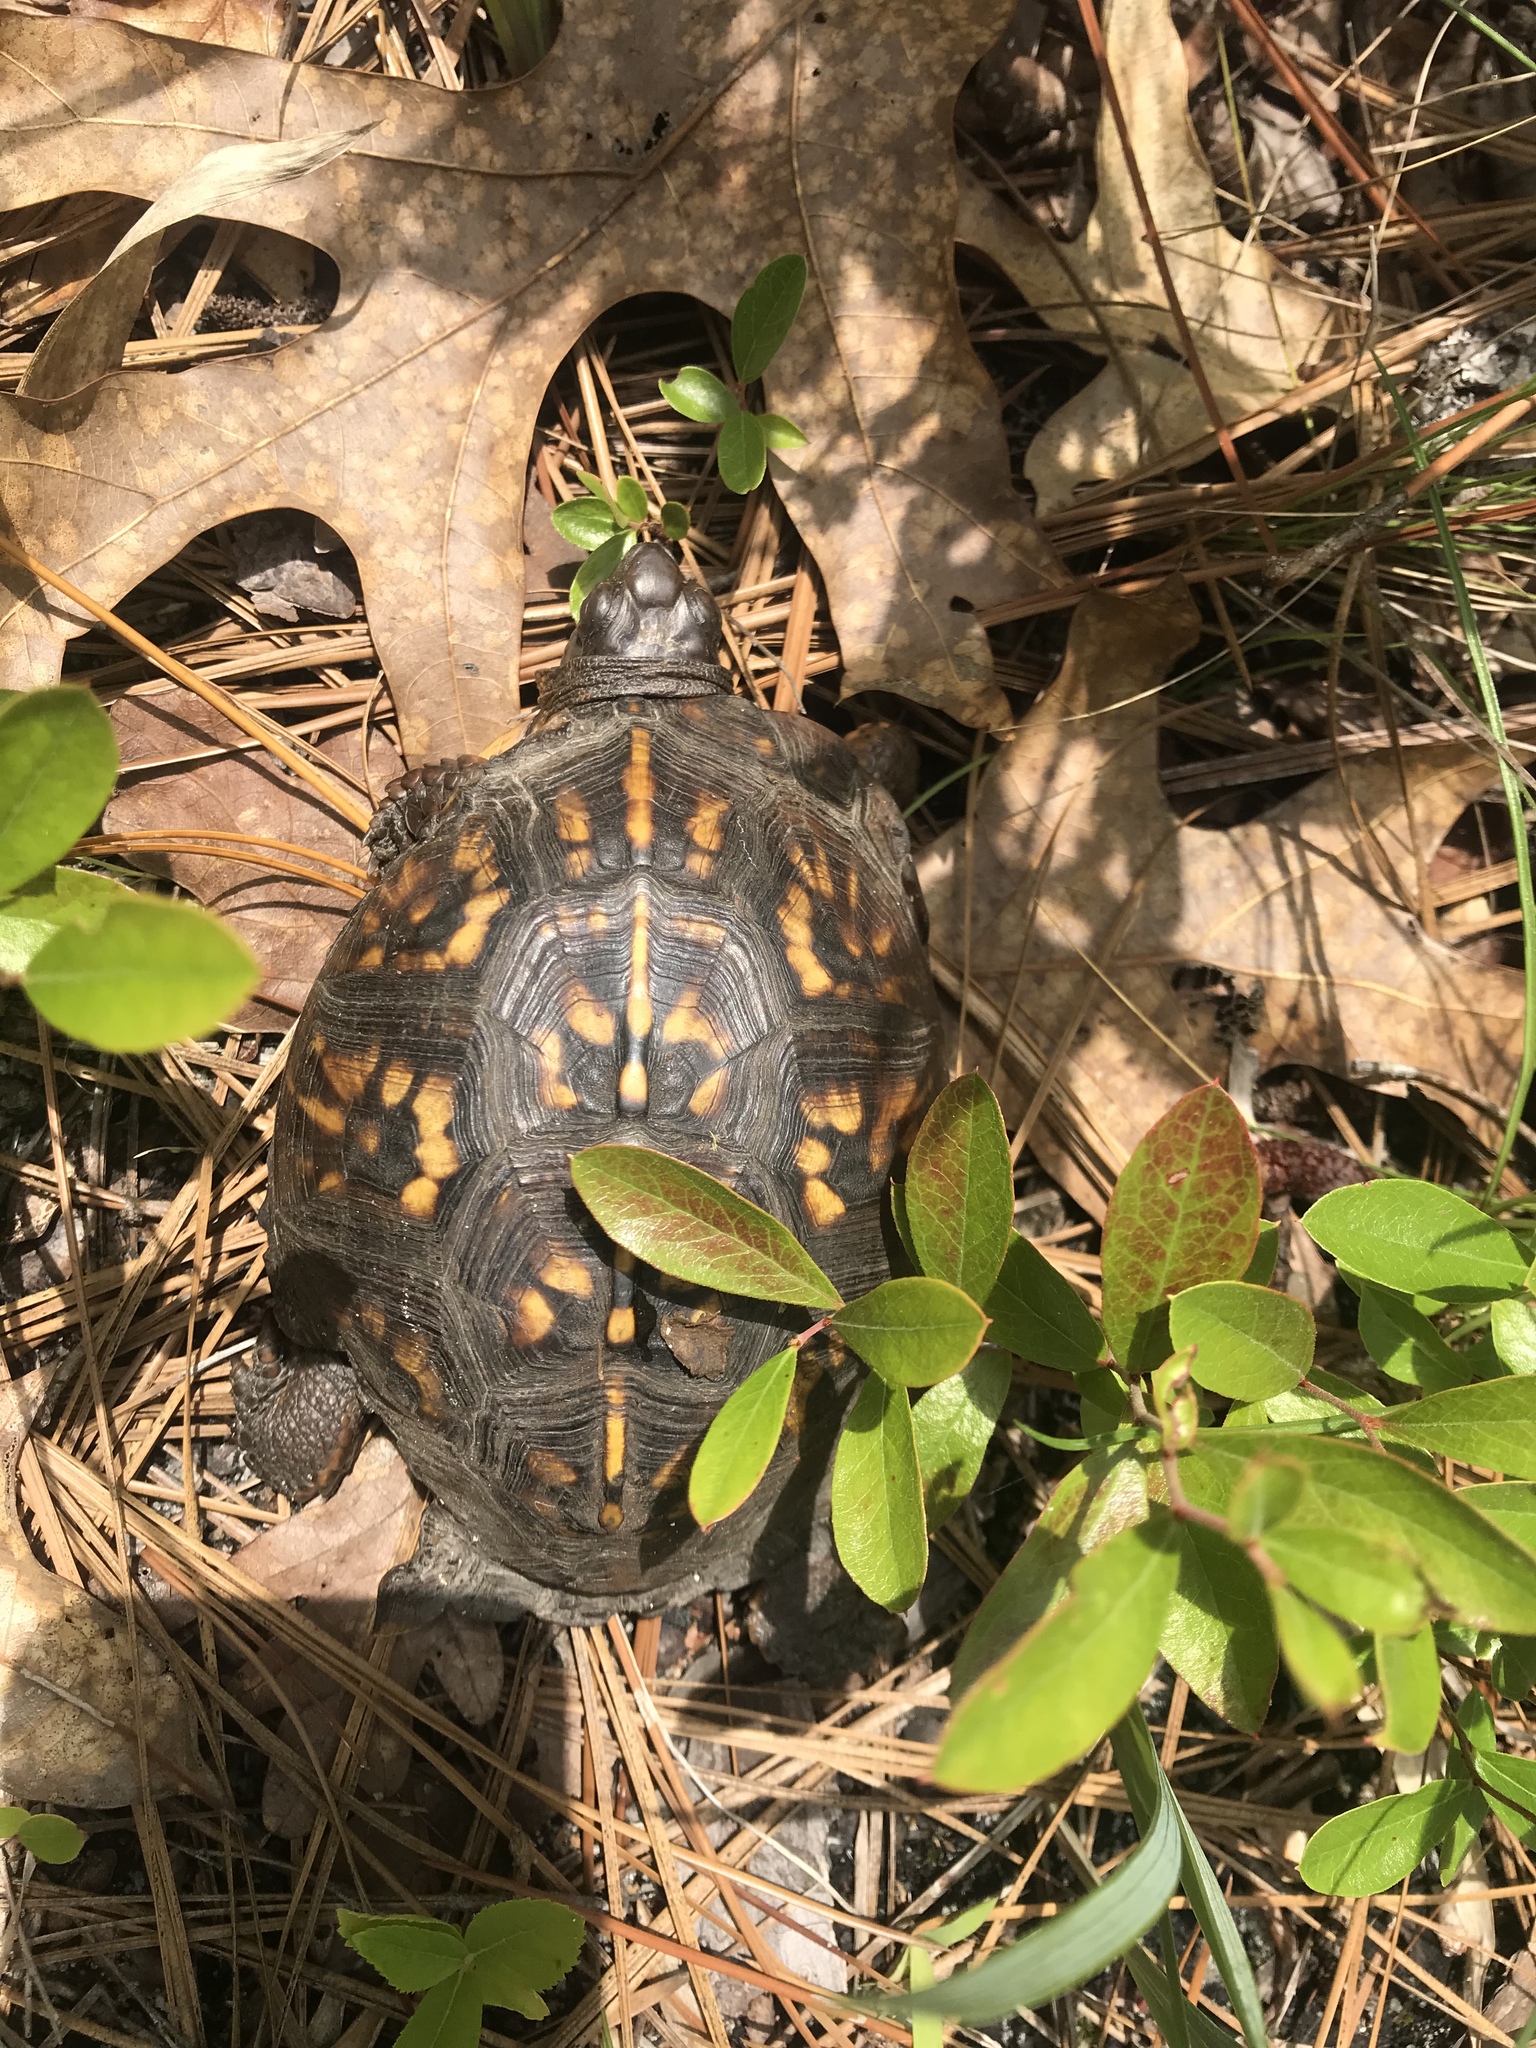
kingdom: Animalia
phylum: Chordata
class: Testudines
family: Emydidae
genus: Terrapene
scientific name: Terrapene carolina
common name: Common box turtle
